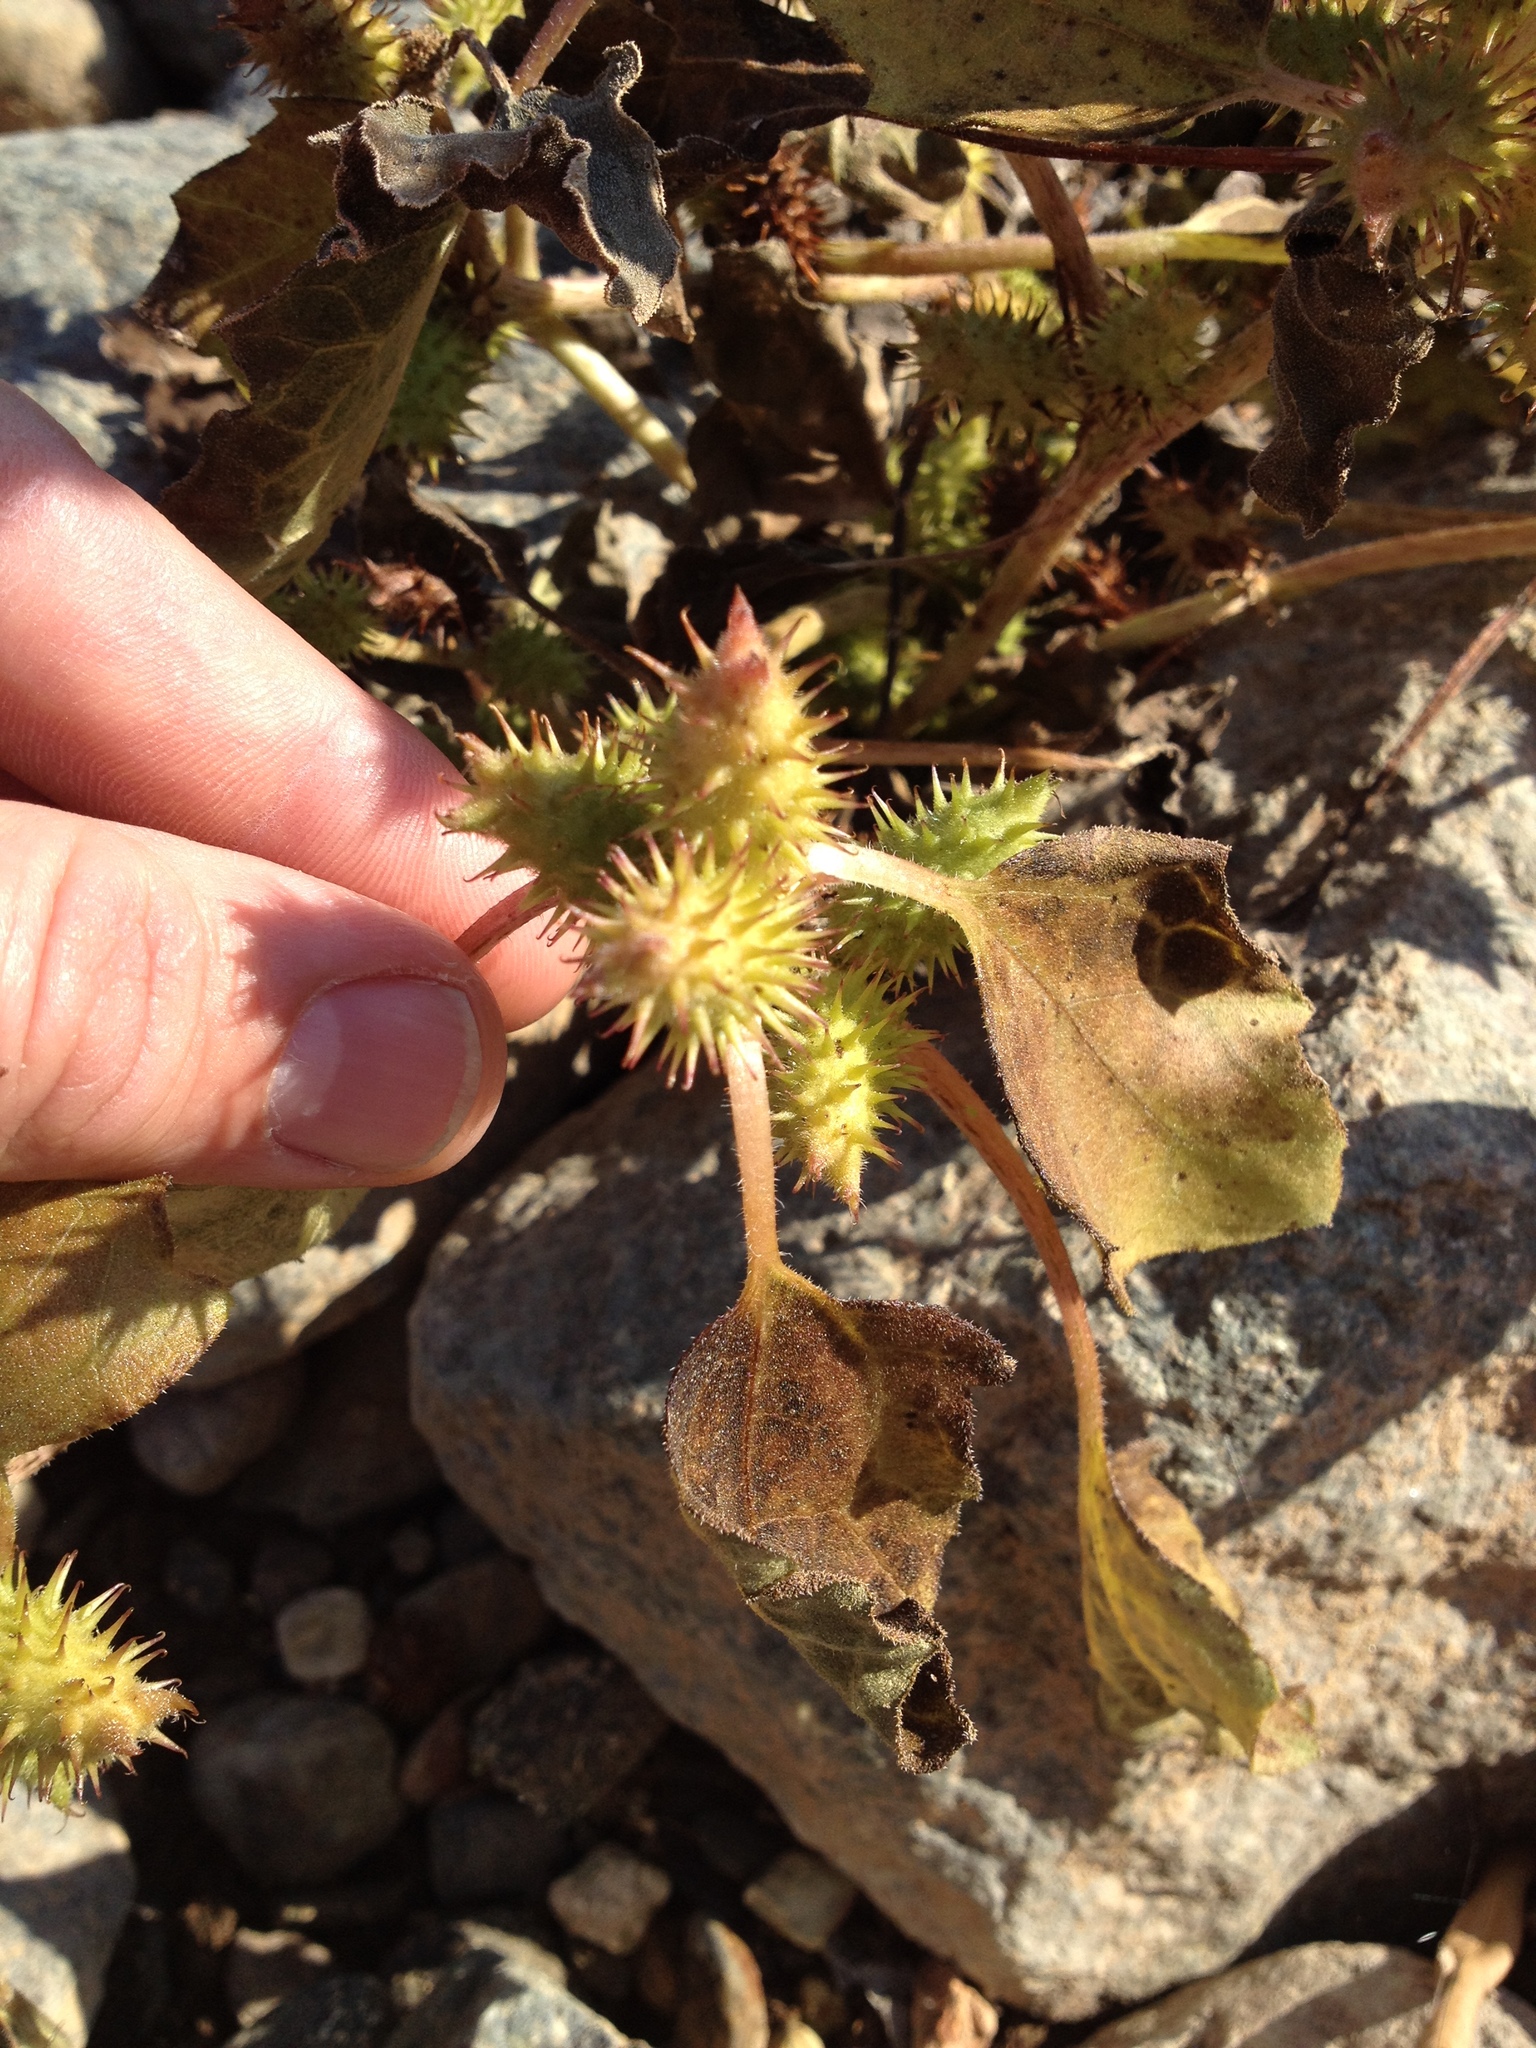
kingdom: Plantae
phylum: Tracheophyta
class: Magnoliopsida
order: Asterales
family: Asteraceae
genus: Xanthium
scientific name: Xanthium strumarium
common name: Rough cocklebur
